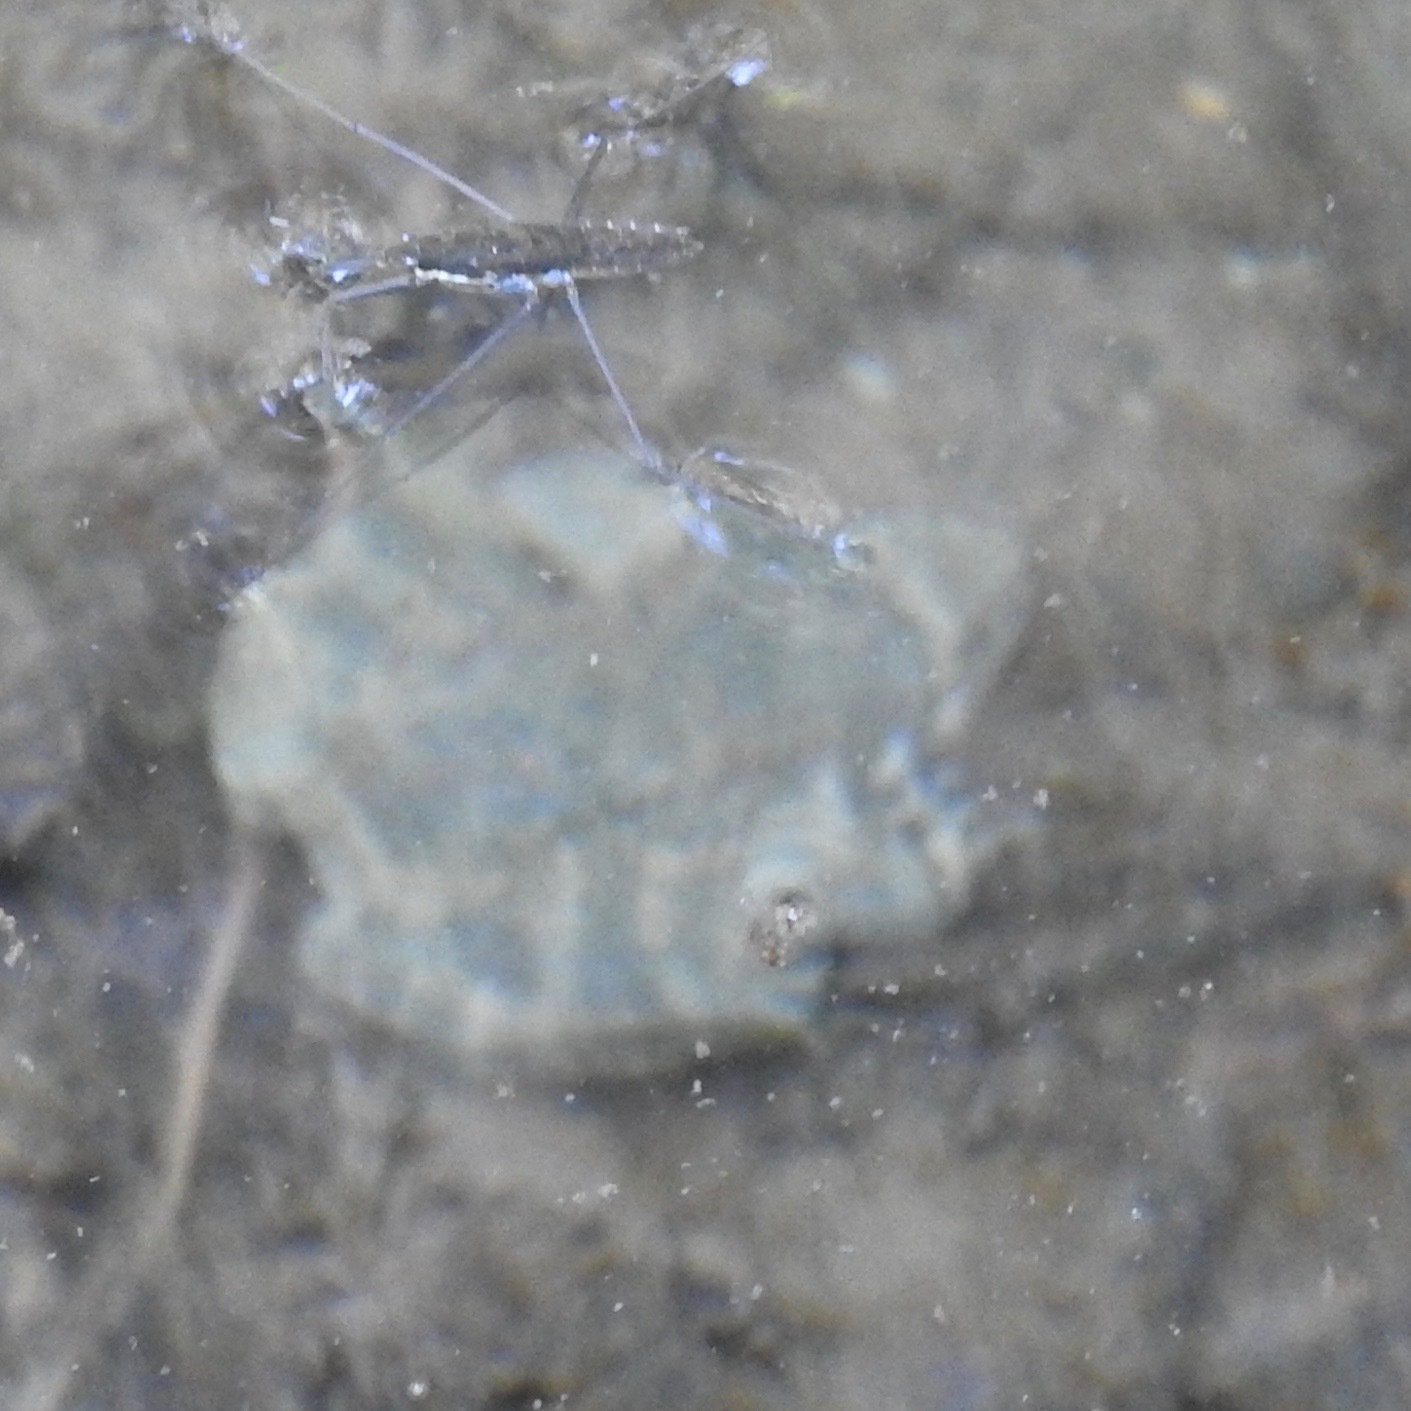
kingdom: Animalia
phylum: Chordata
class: Amphibia
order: Anura
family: Ranidae
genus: Rana
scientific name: Rana boylii
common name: Foothill yellow-legged frog
